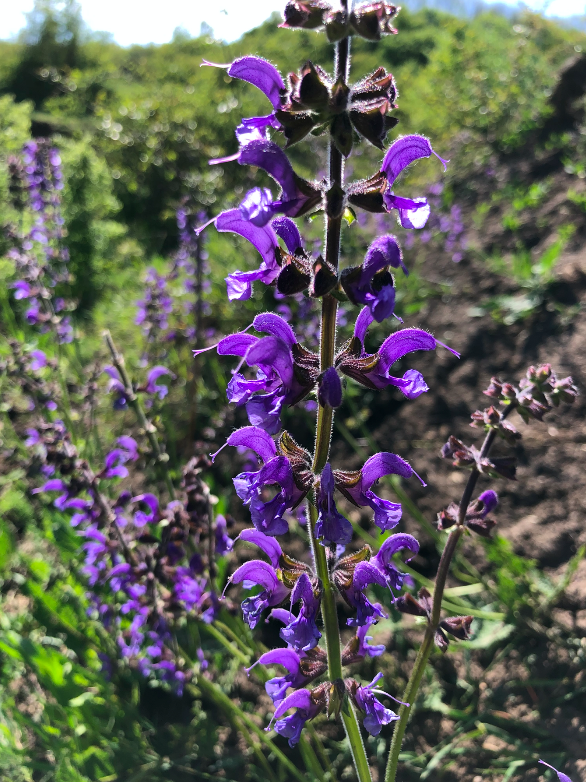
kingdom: Plantae
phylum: Tracheophyta
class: Magnoliopsida
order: Lamiales
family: Lamiaceae
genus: Salvia
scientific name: Salvia pratensis
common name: Meadow sage
